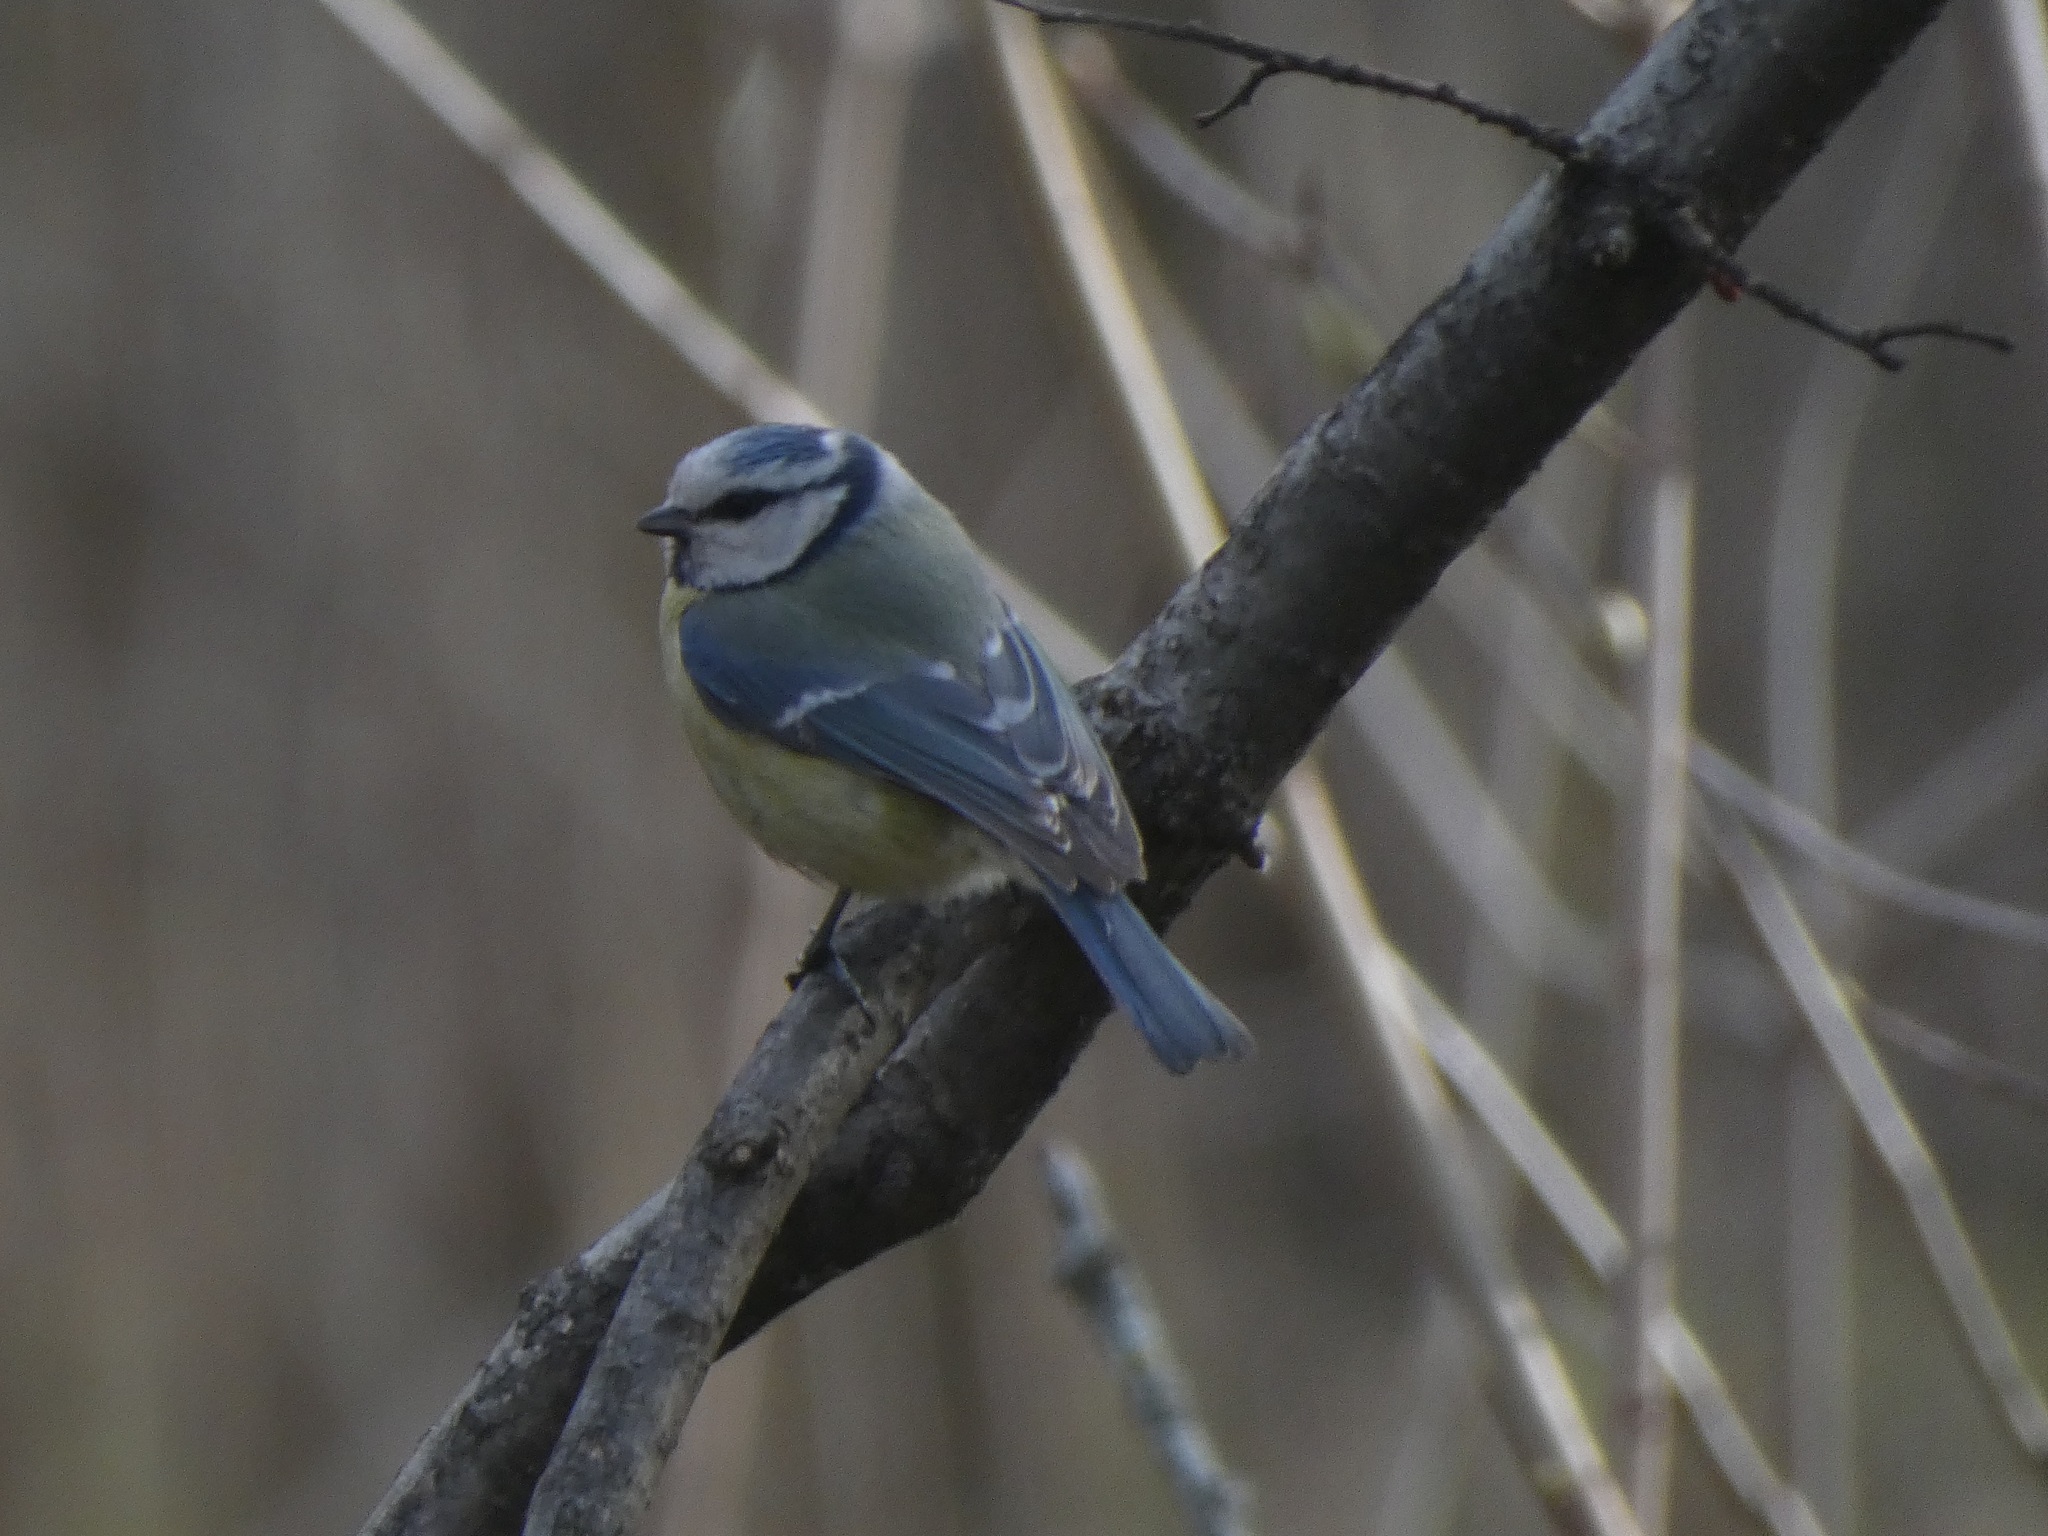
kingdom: Animalia
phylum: Chordata
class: Aves
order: Passeriformes
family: Paridae
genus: Cyanistes
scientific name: Cyanistes caeruleus
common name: Eurasian blue tit
